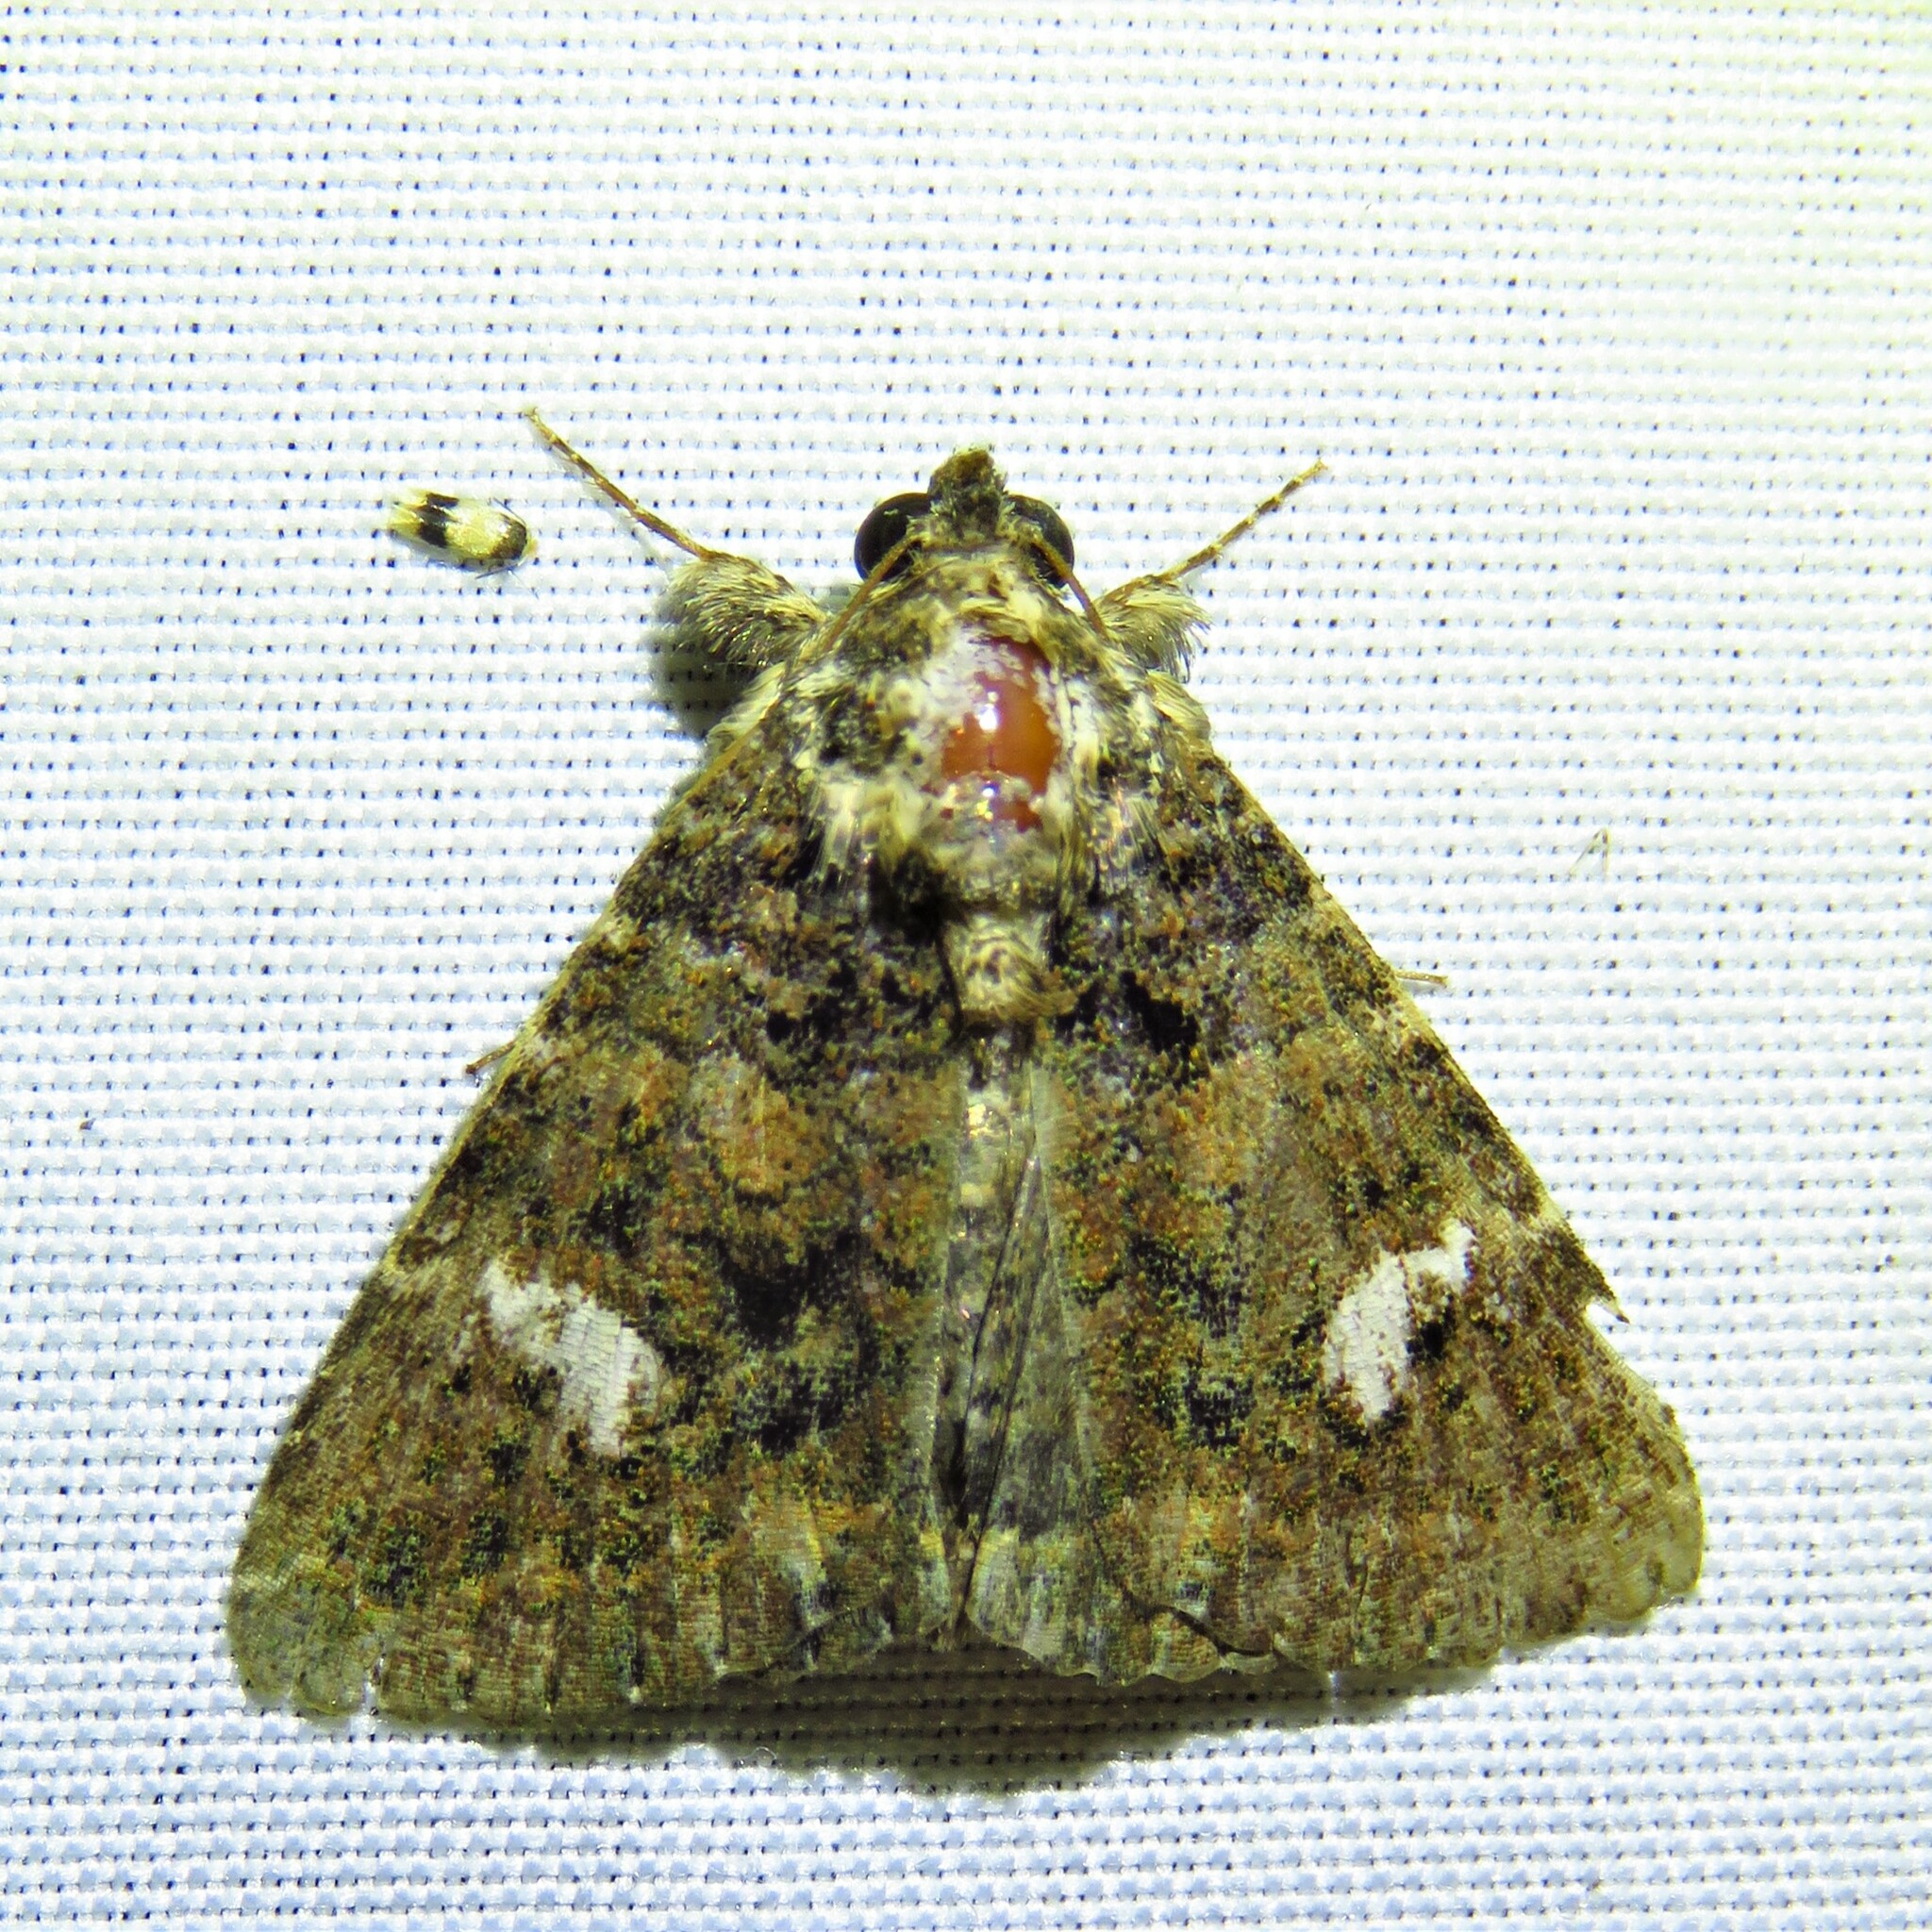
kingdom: Animalia
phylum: Arthropoda
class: Insecta
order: Lepidoptera
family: Erebidae
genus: Coxina
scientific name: Coxina cinctipalpis
